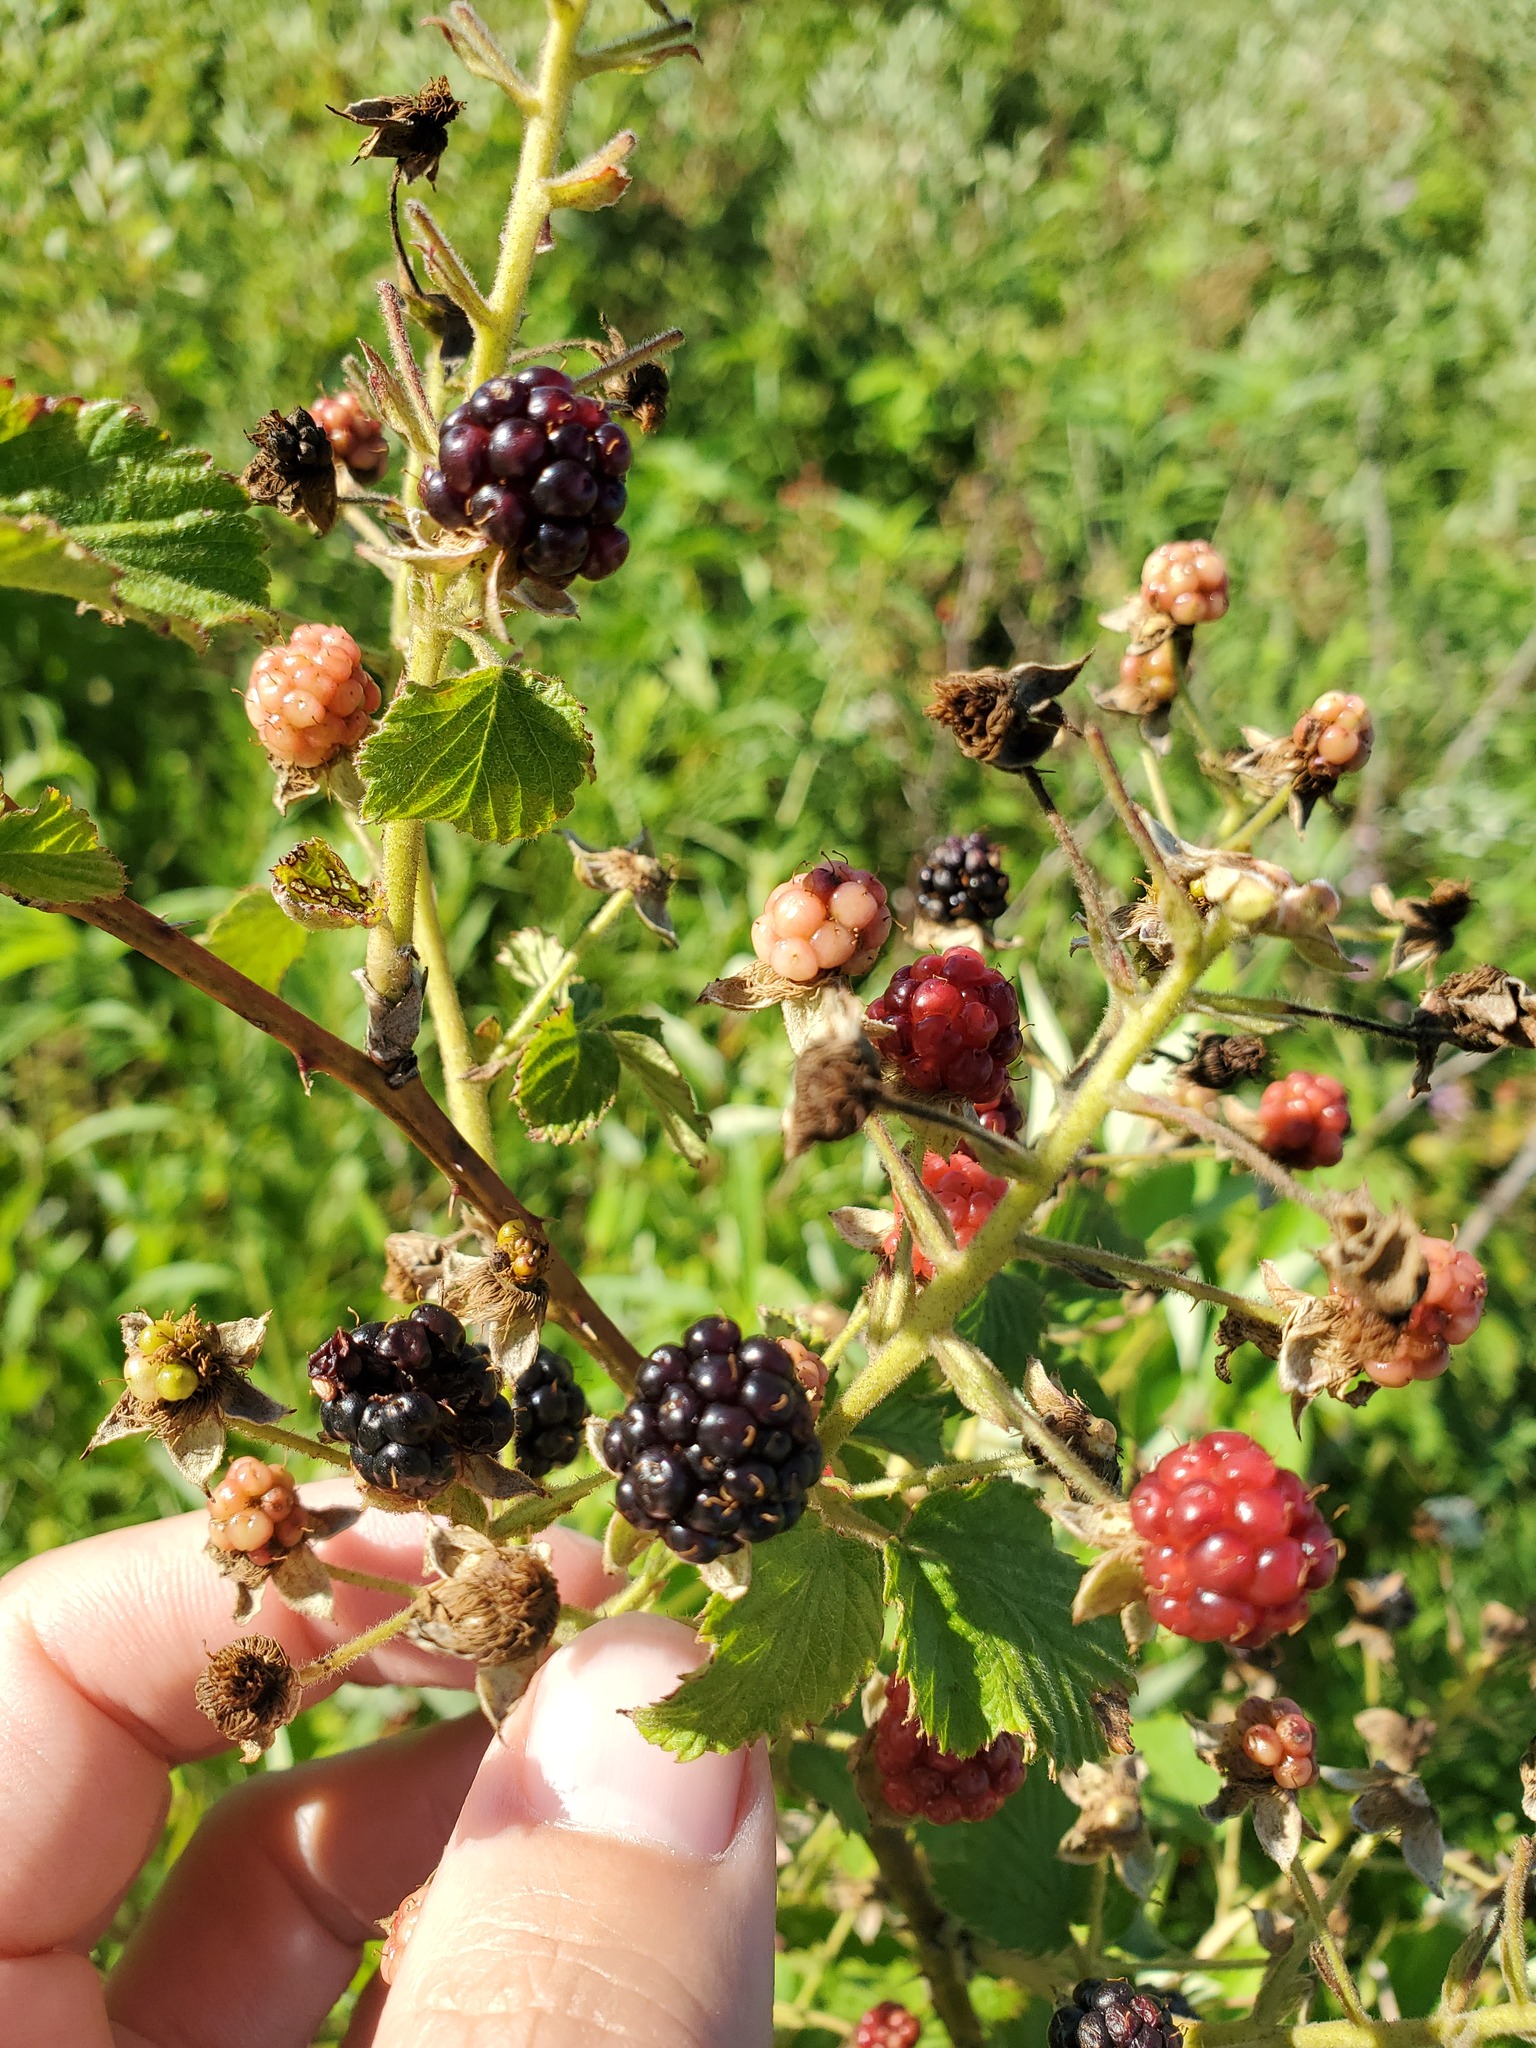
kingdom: Plantae
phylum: Tracheophyta
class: Magnoliopsida
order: Rosales
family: Rosaceae
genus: Rubus
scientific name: Rubus allegheniensis
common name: Allegheny blackberry
